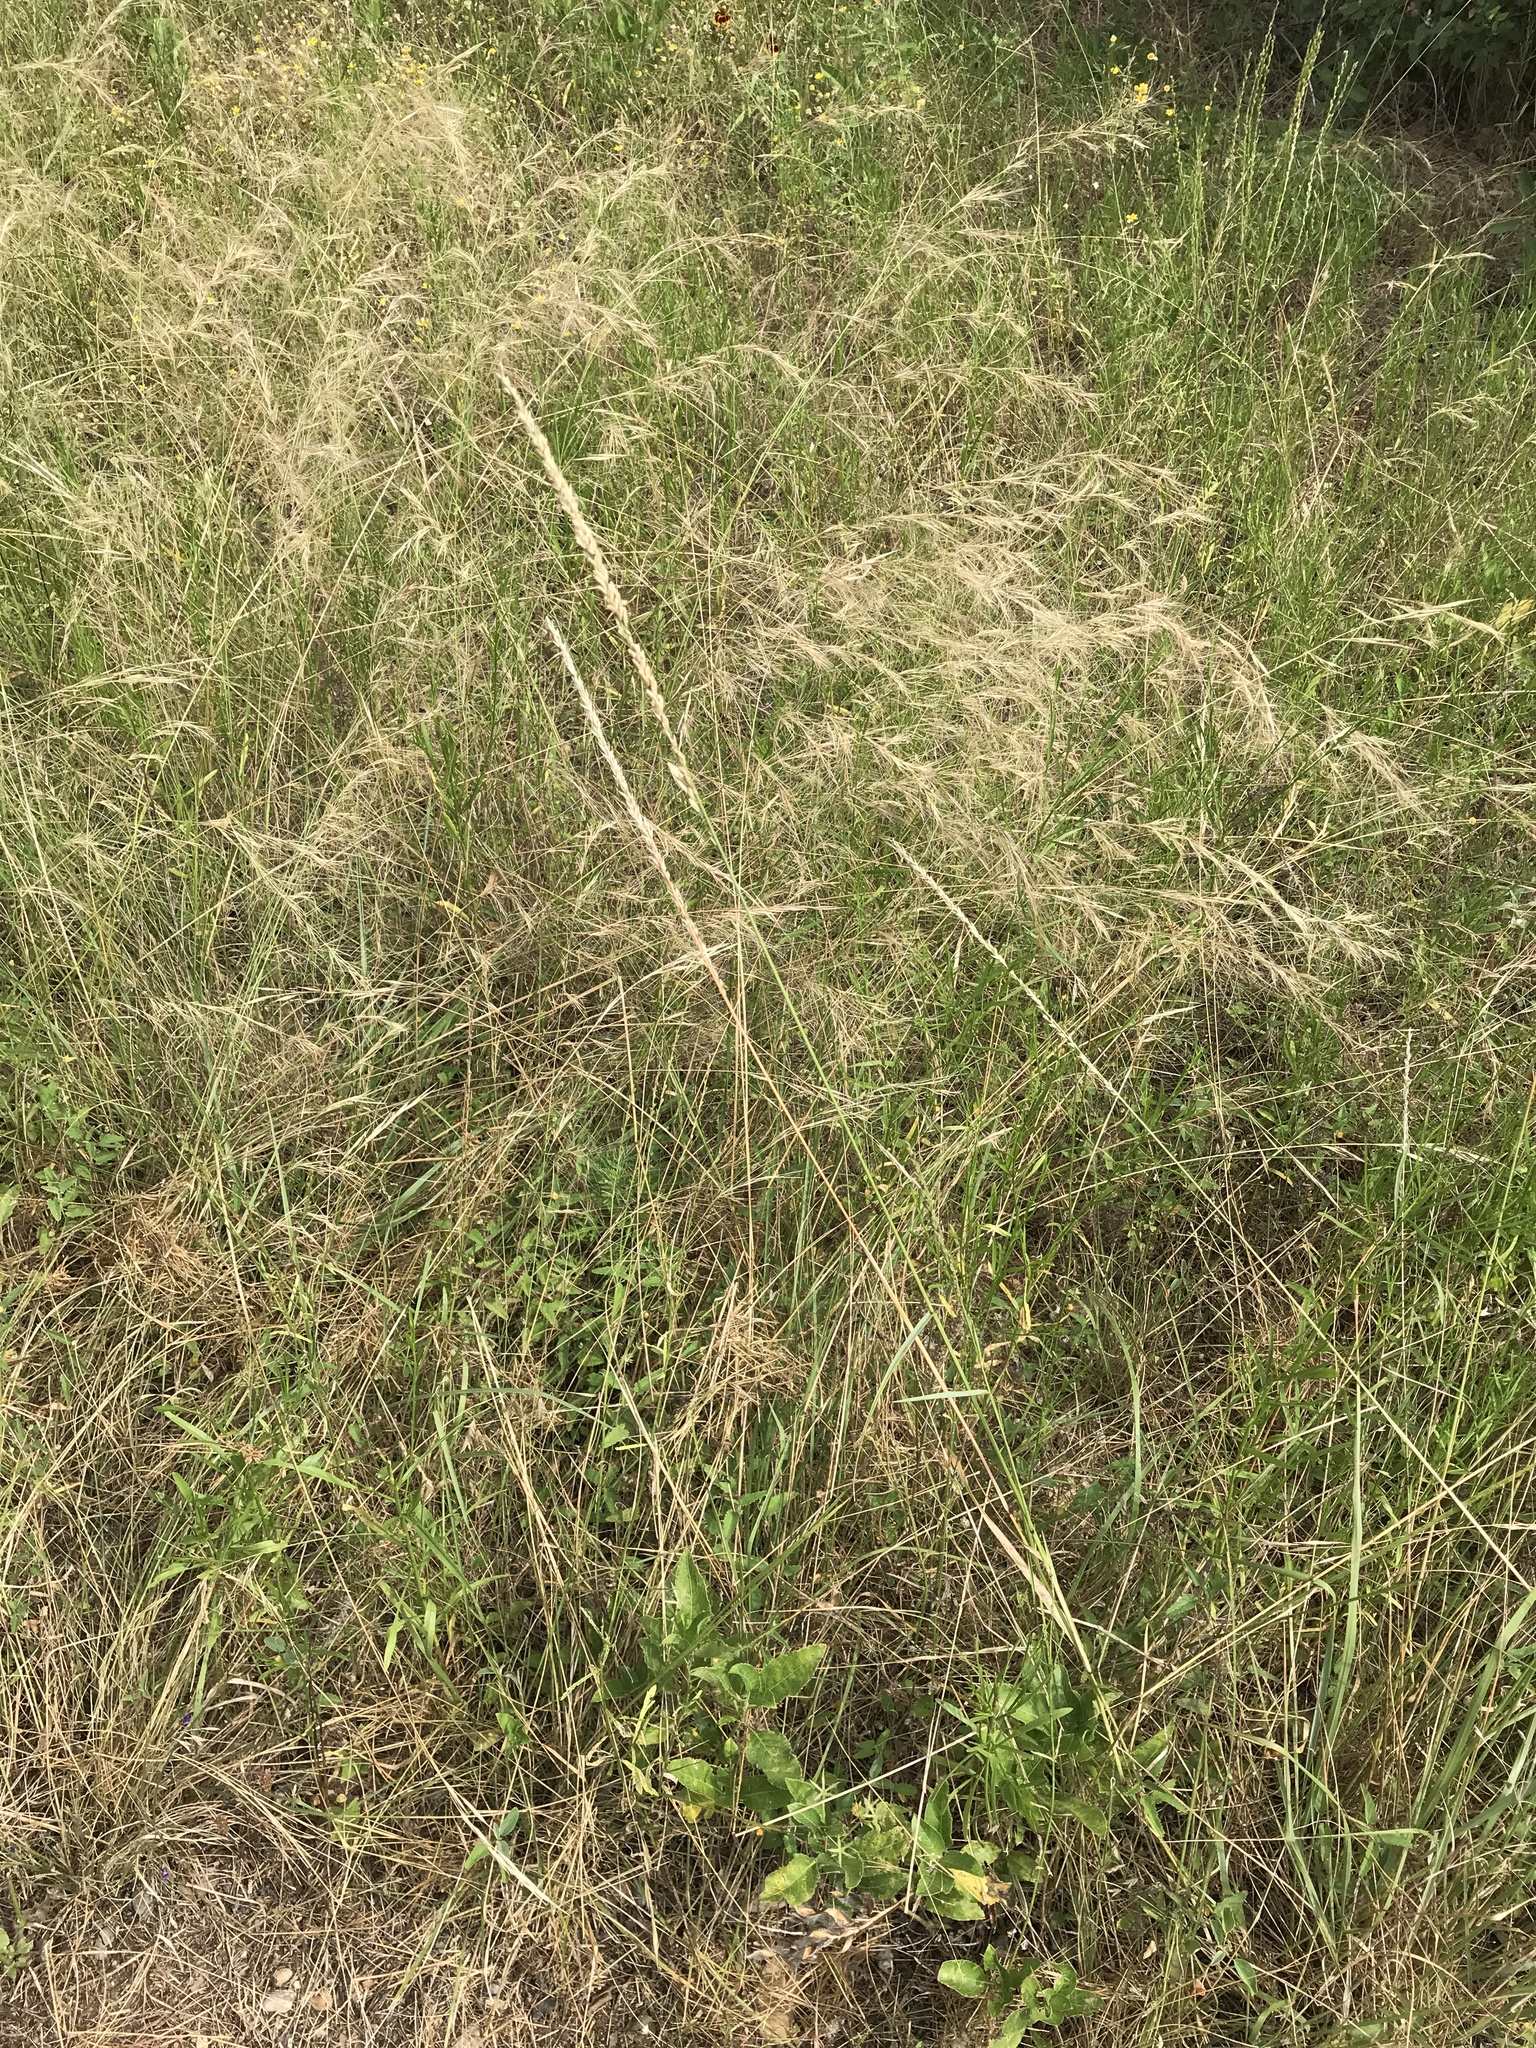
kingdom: Plantae
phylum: Tracheophyta
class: Liliopsida
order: Poales
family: Poaceae
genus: Tridens
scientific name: Tridens albescens
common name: White tridens
